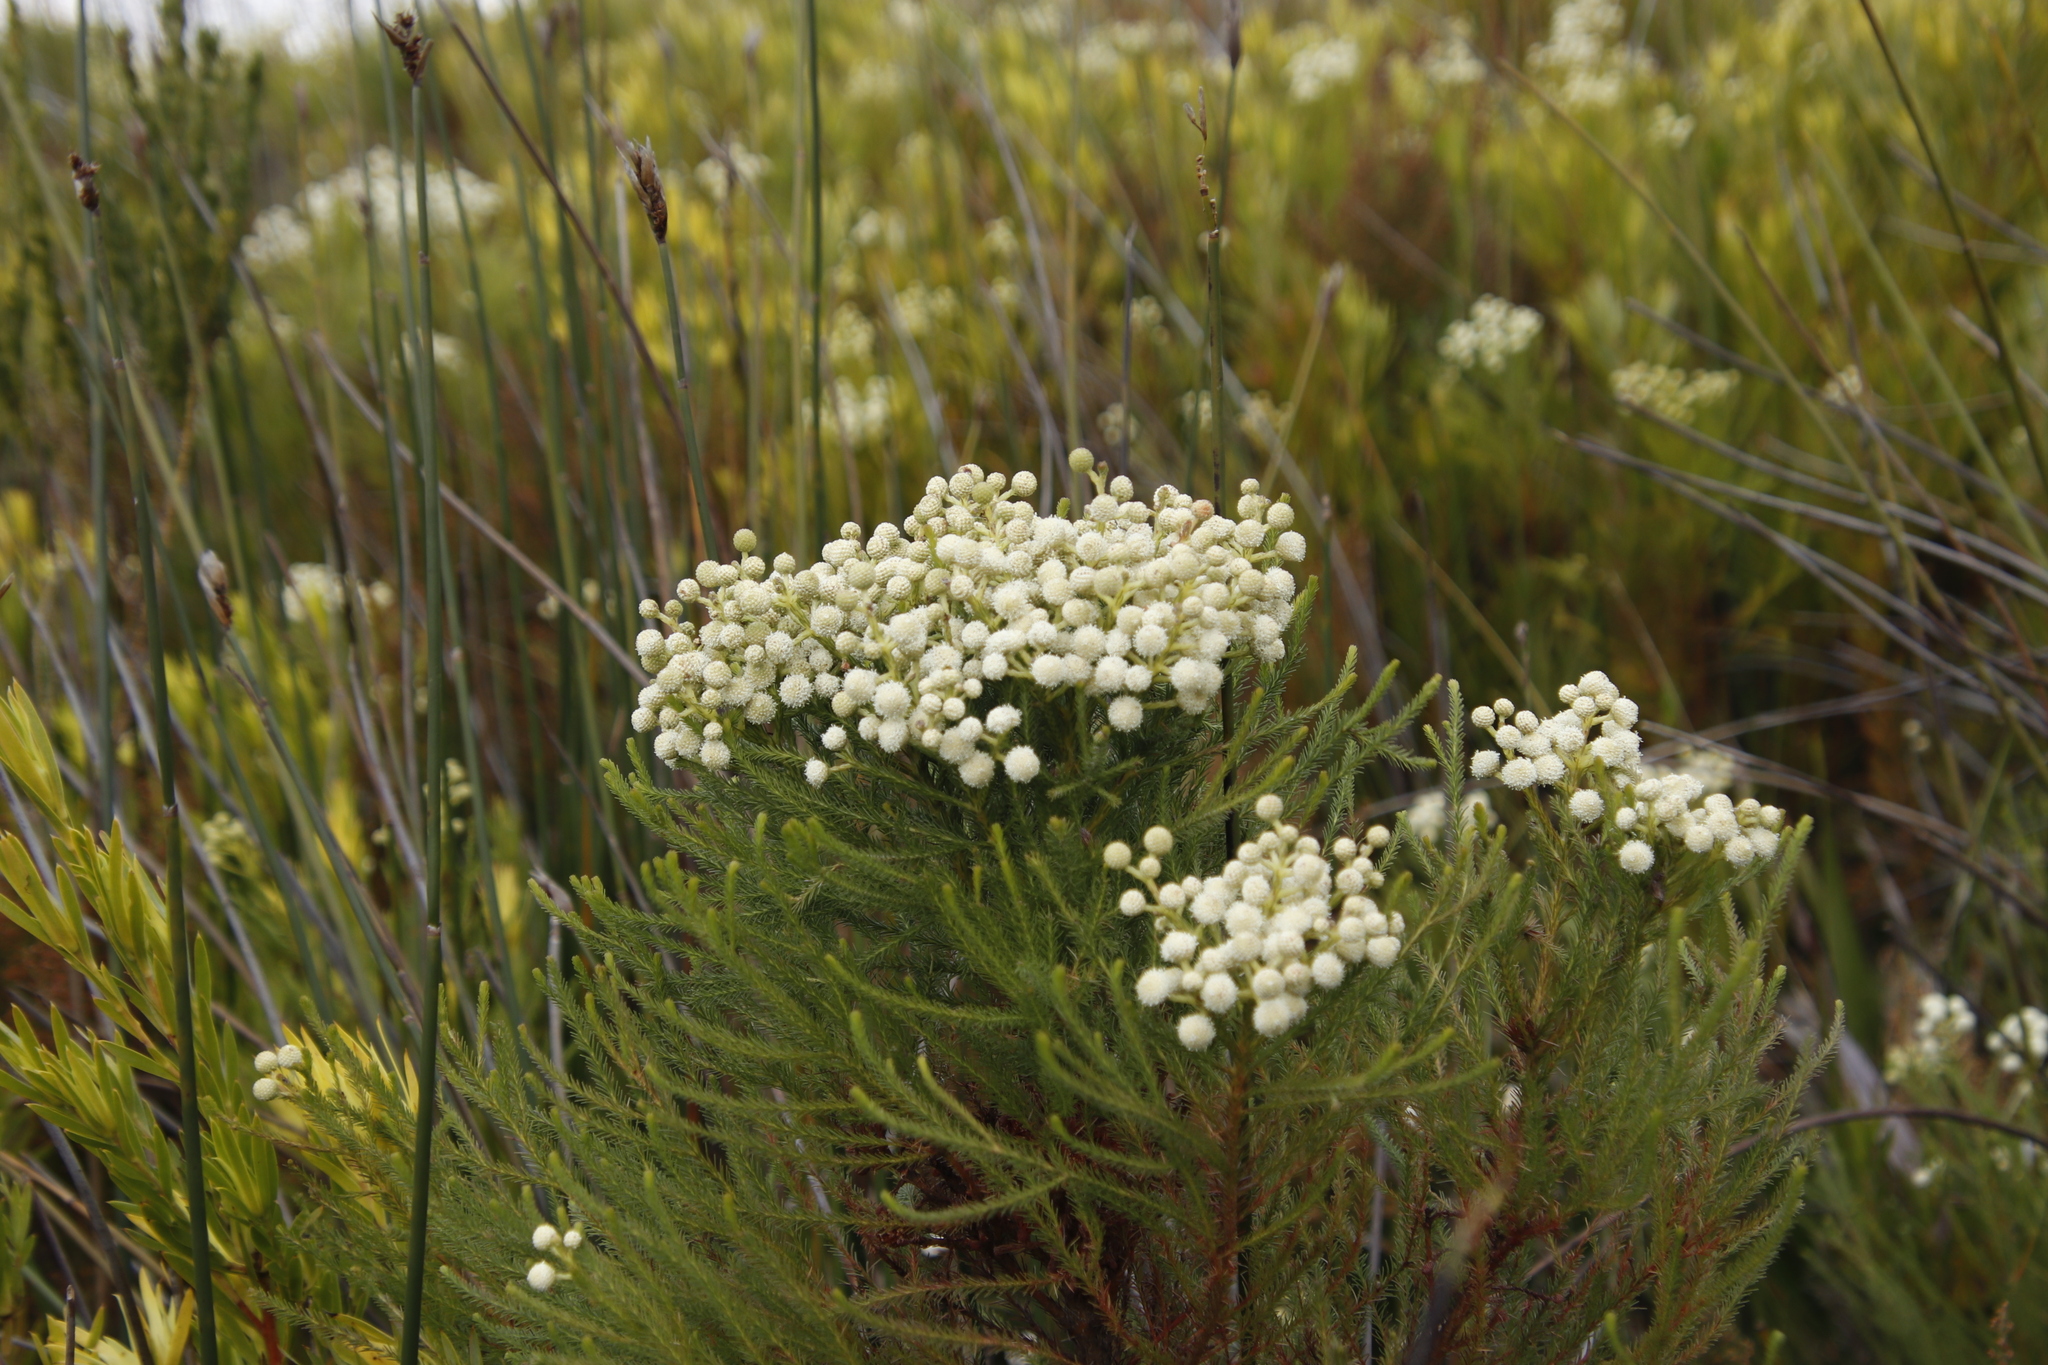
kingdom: Plantae
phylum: Tracheophyta
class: Magnoliopsida
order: Bruniales
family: Bruniaceae
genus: Berzelia
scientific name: Berzelia lanuginosa
